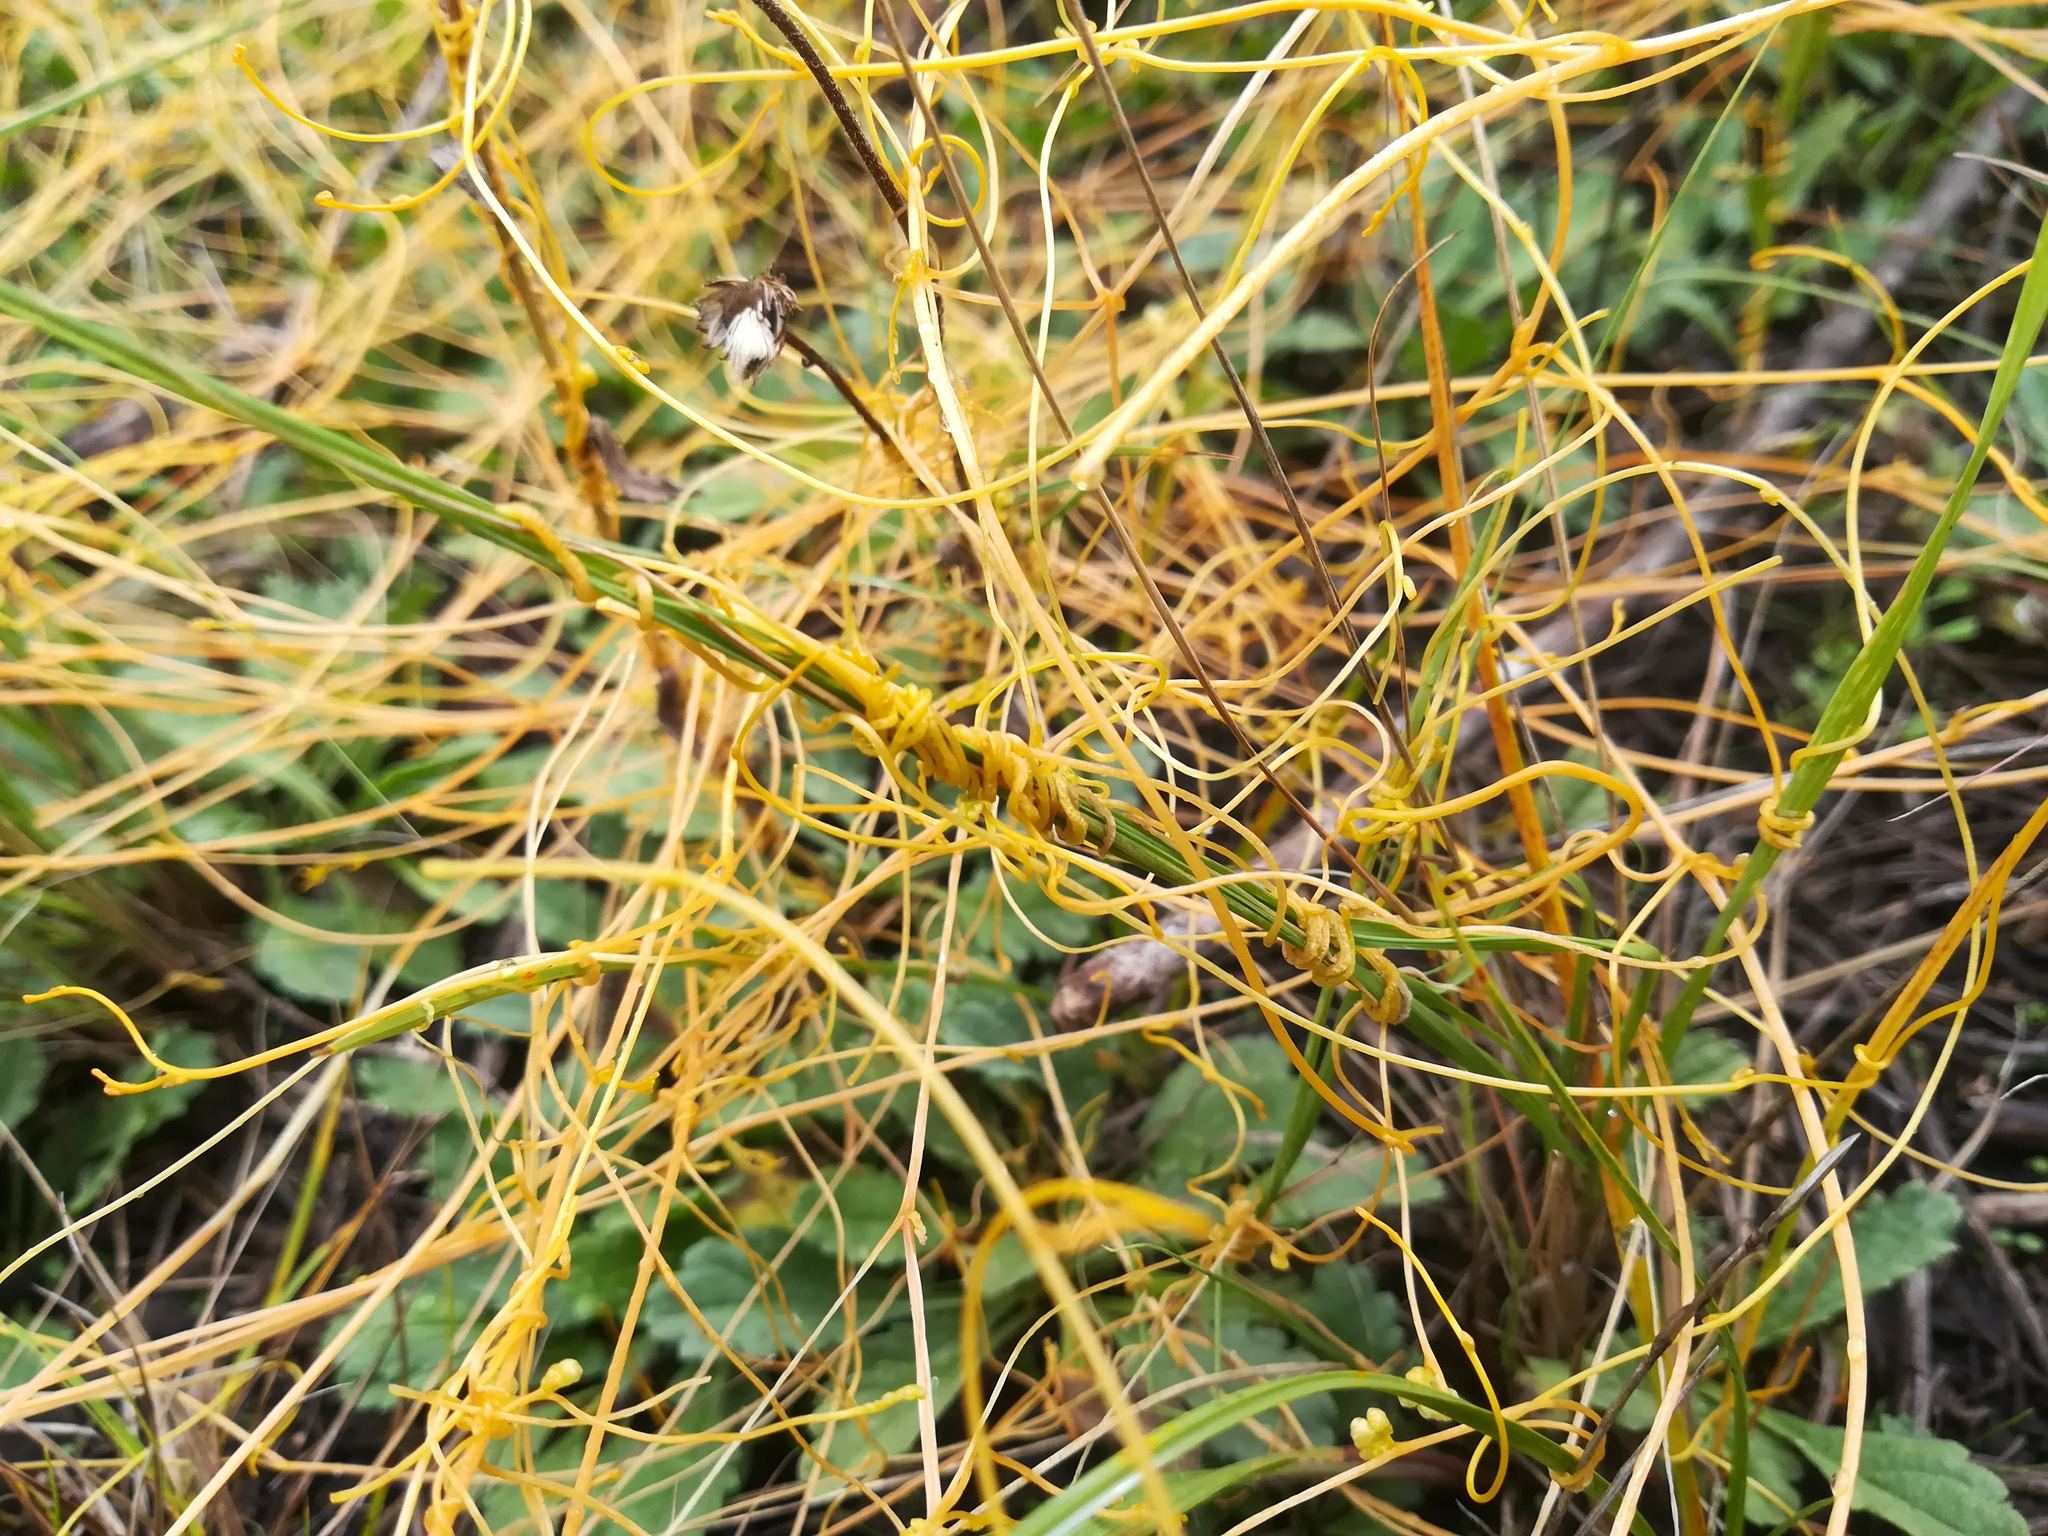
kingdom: Plantae
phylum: Tracheophyta
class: Magnoliopsida
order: Solanales
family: Convolvulaceae
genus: Cuscuta
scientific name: Cuscuta campestris
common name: Yellow dodder
